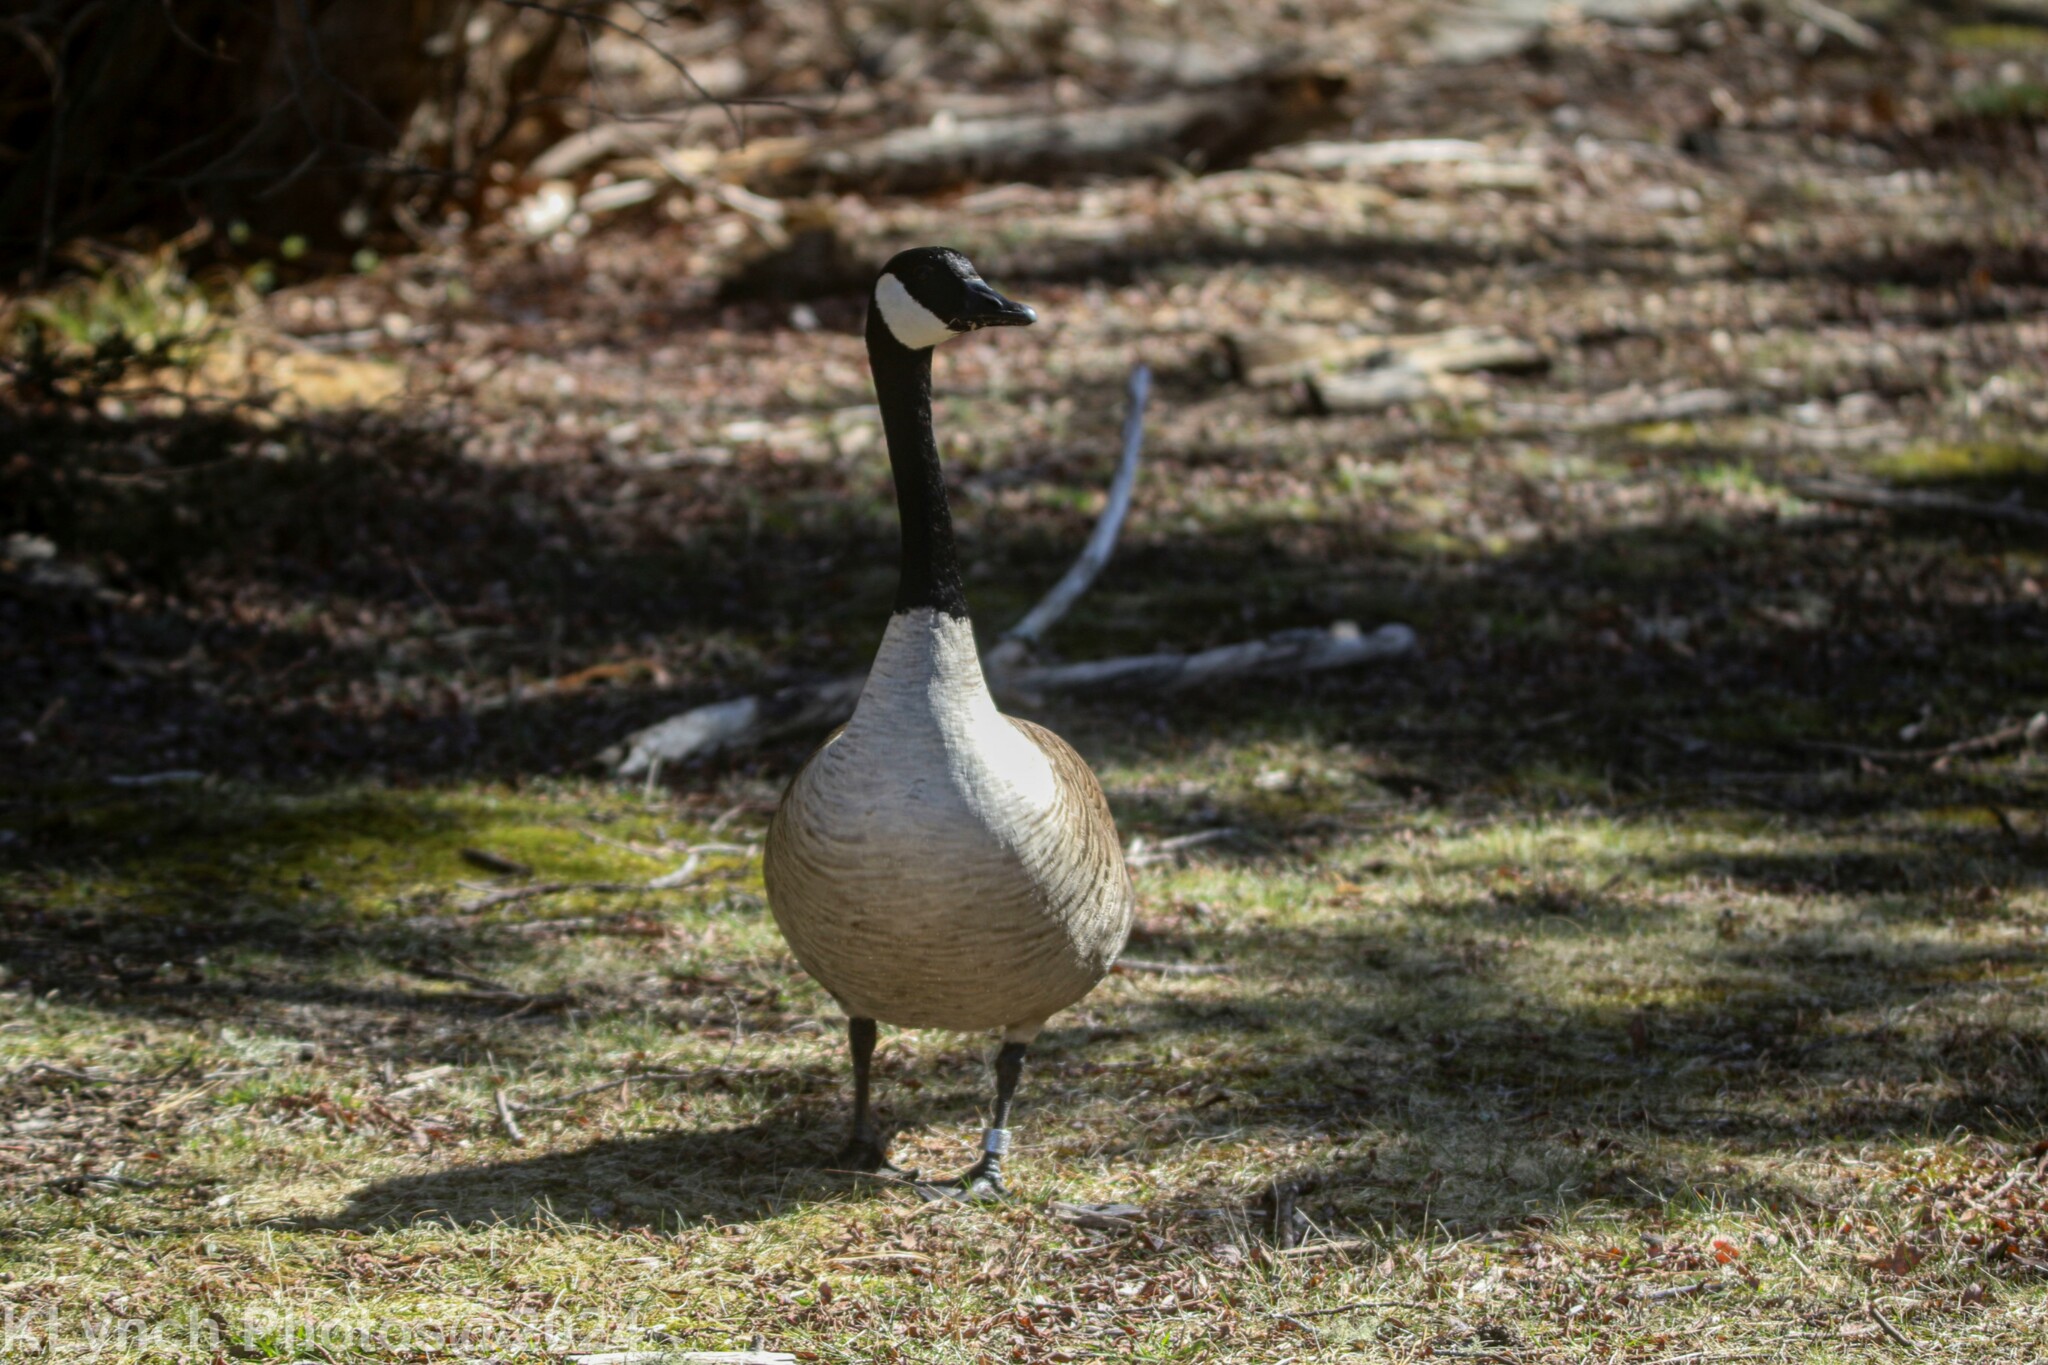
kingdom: Animalia
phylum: Chordata
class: Aves
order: Anseriformes
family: Anatidae
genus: Branta
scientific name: Branta canadensis
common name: Canada goose
